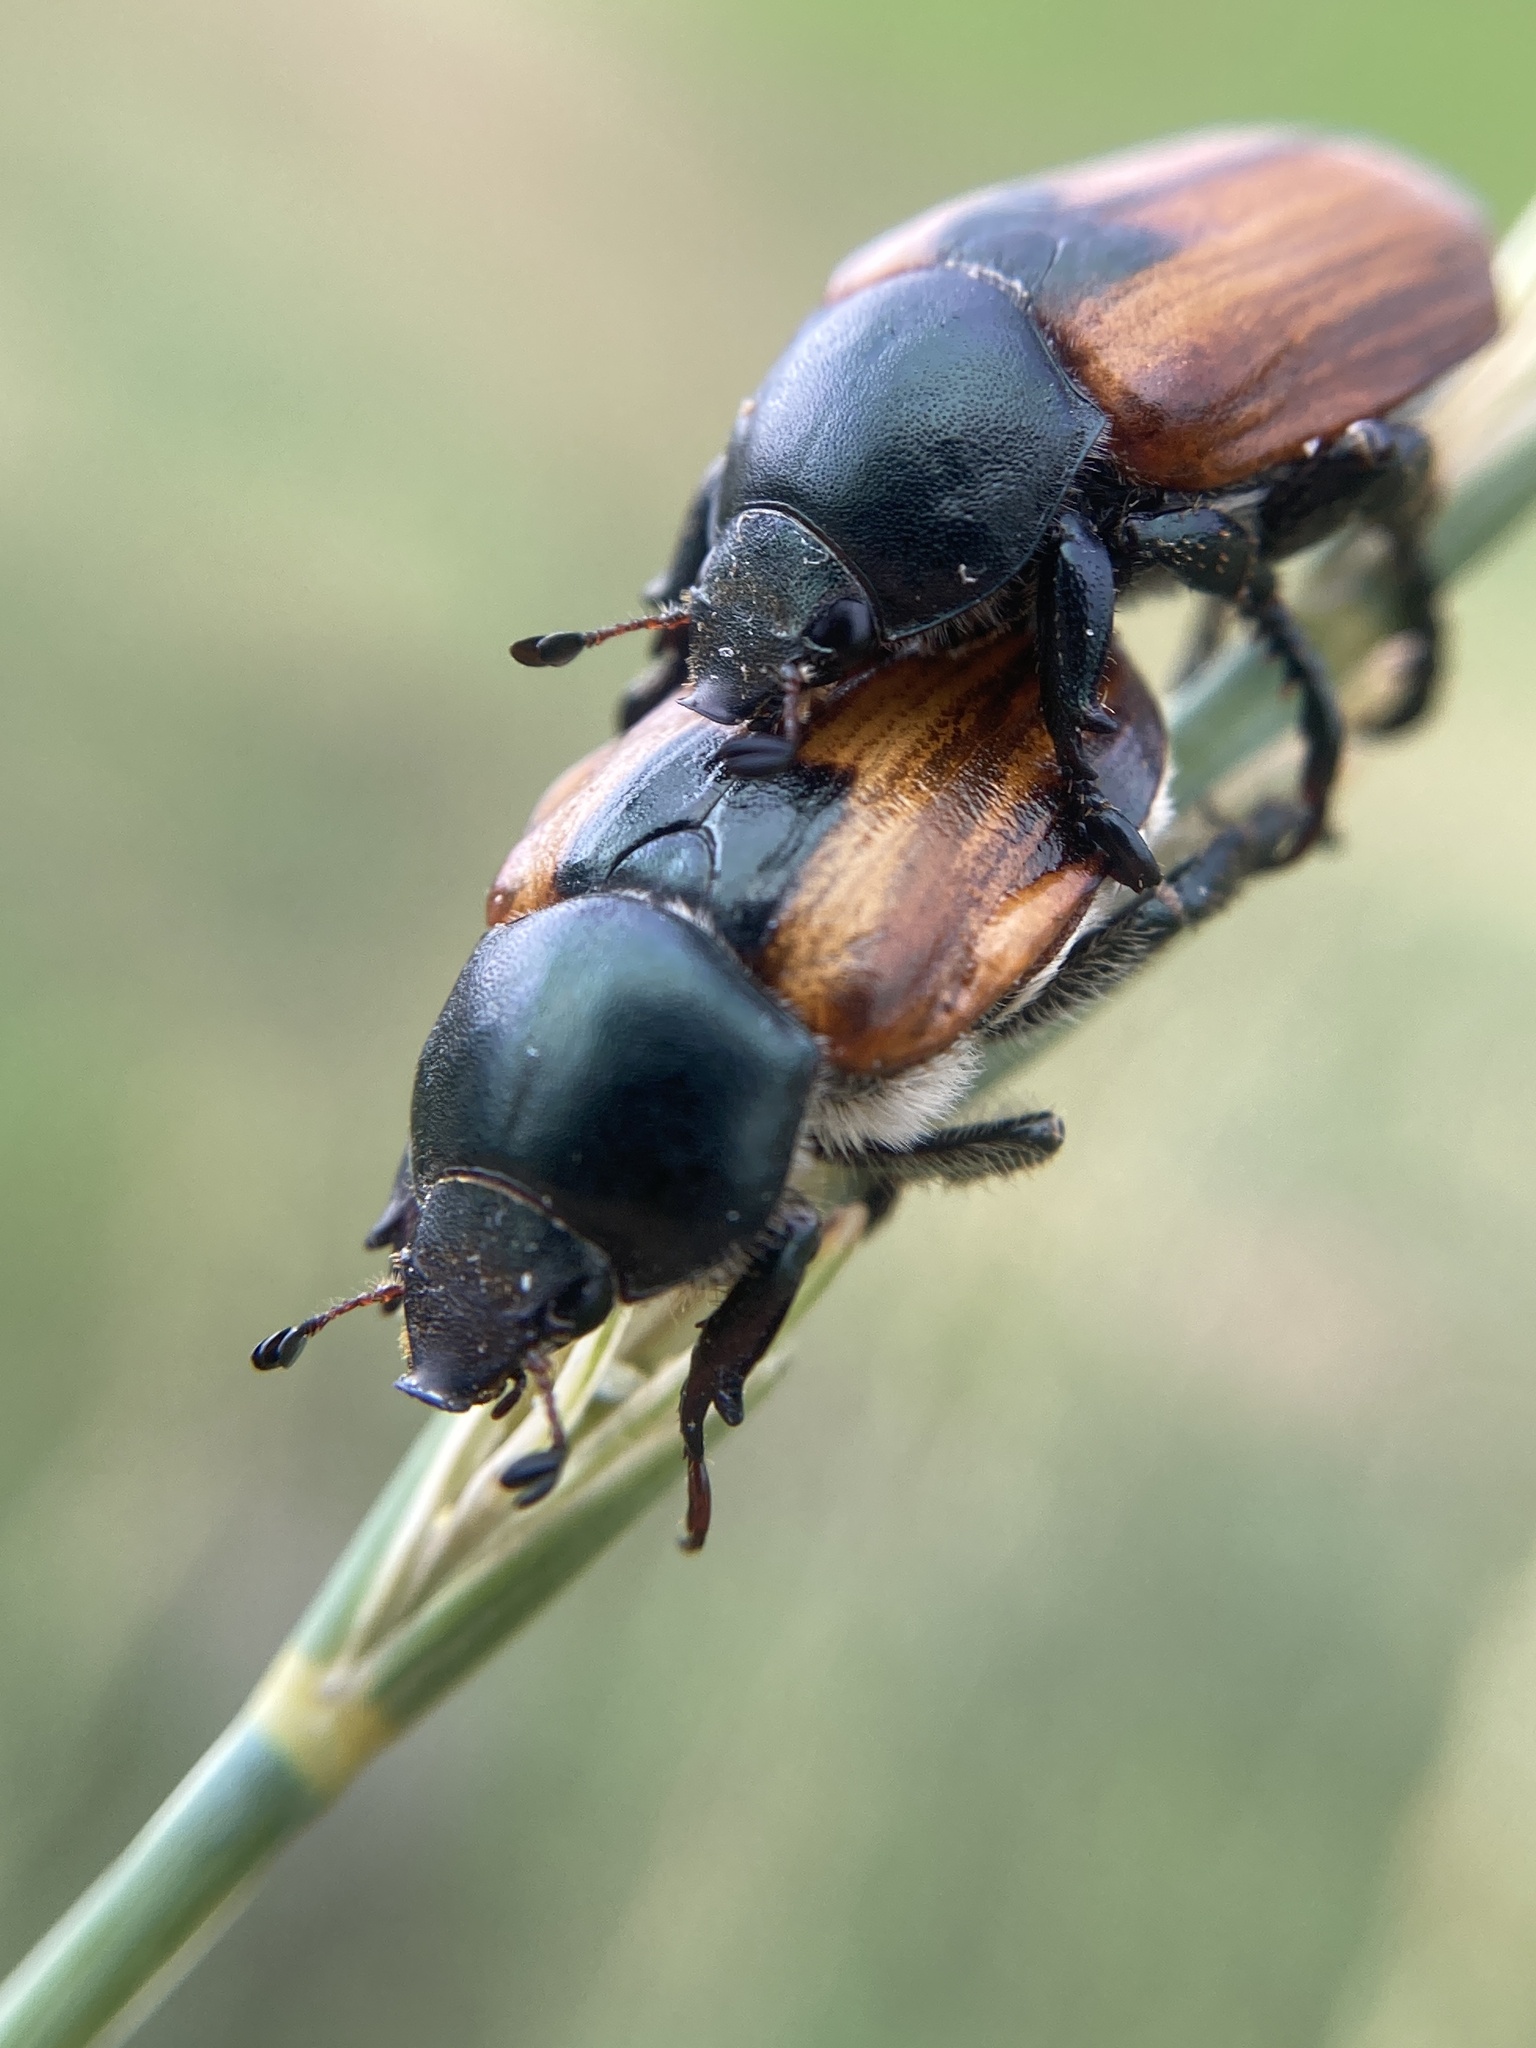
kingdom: Animalia
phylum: Arthropoda
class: Insecta
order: Coleoptera
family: Scarabaeidae
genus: Anisoplia
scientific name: Anisoplia austriaca
